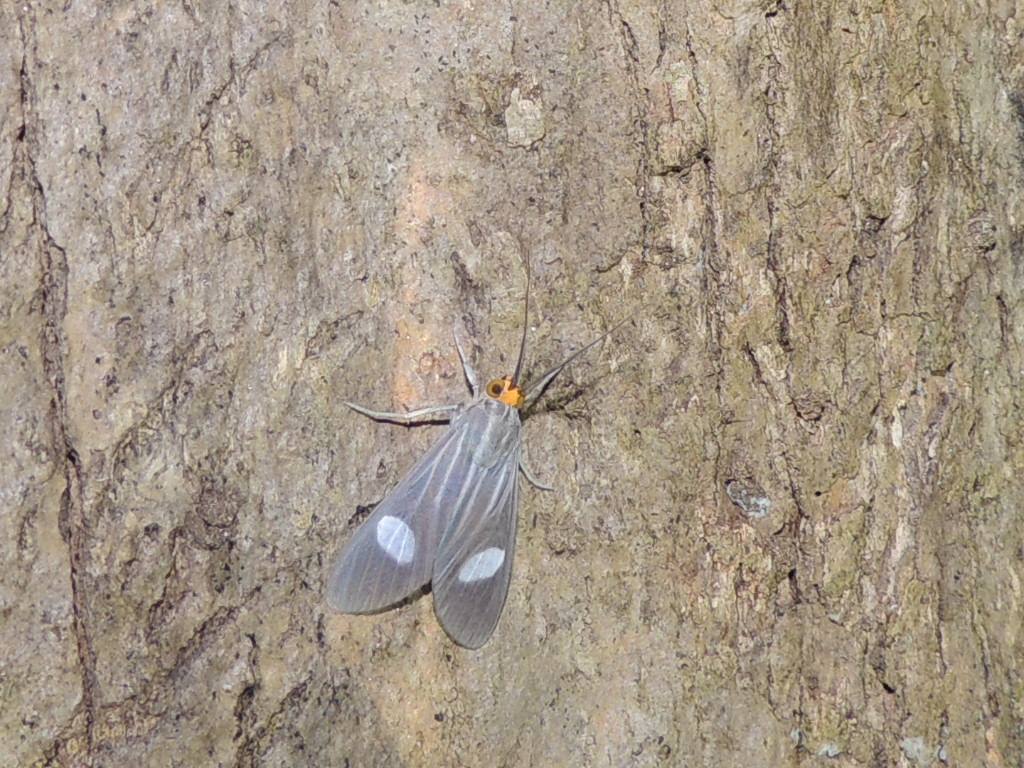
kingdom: Animalia
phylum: Arthropoda
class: Insecta
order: Lepidoptera
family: Erebidae
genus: Glaucostola
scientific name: Glaucostola guttipalpis
